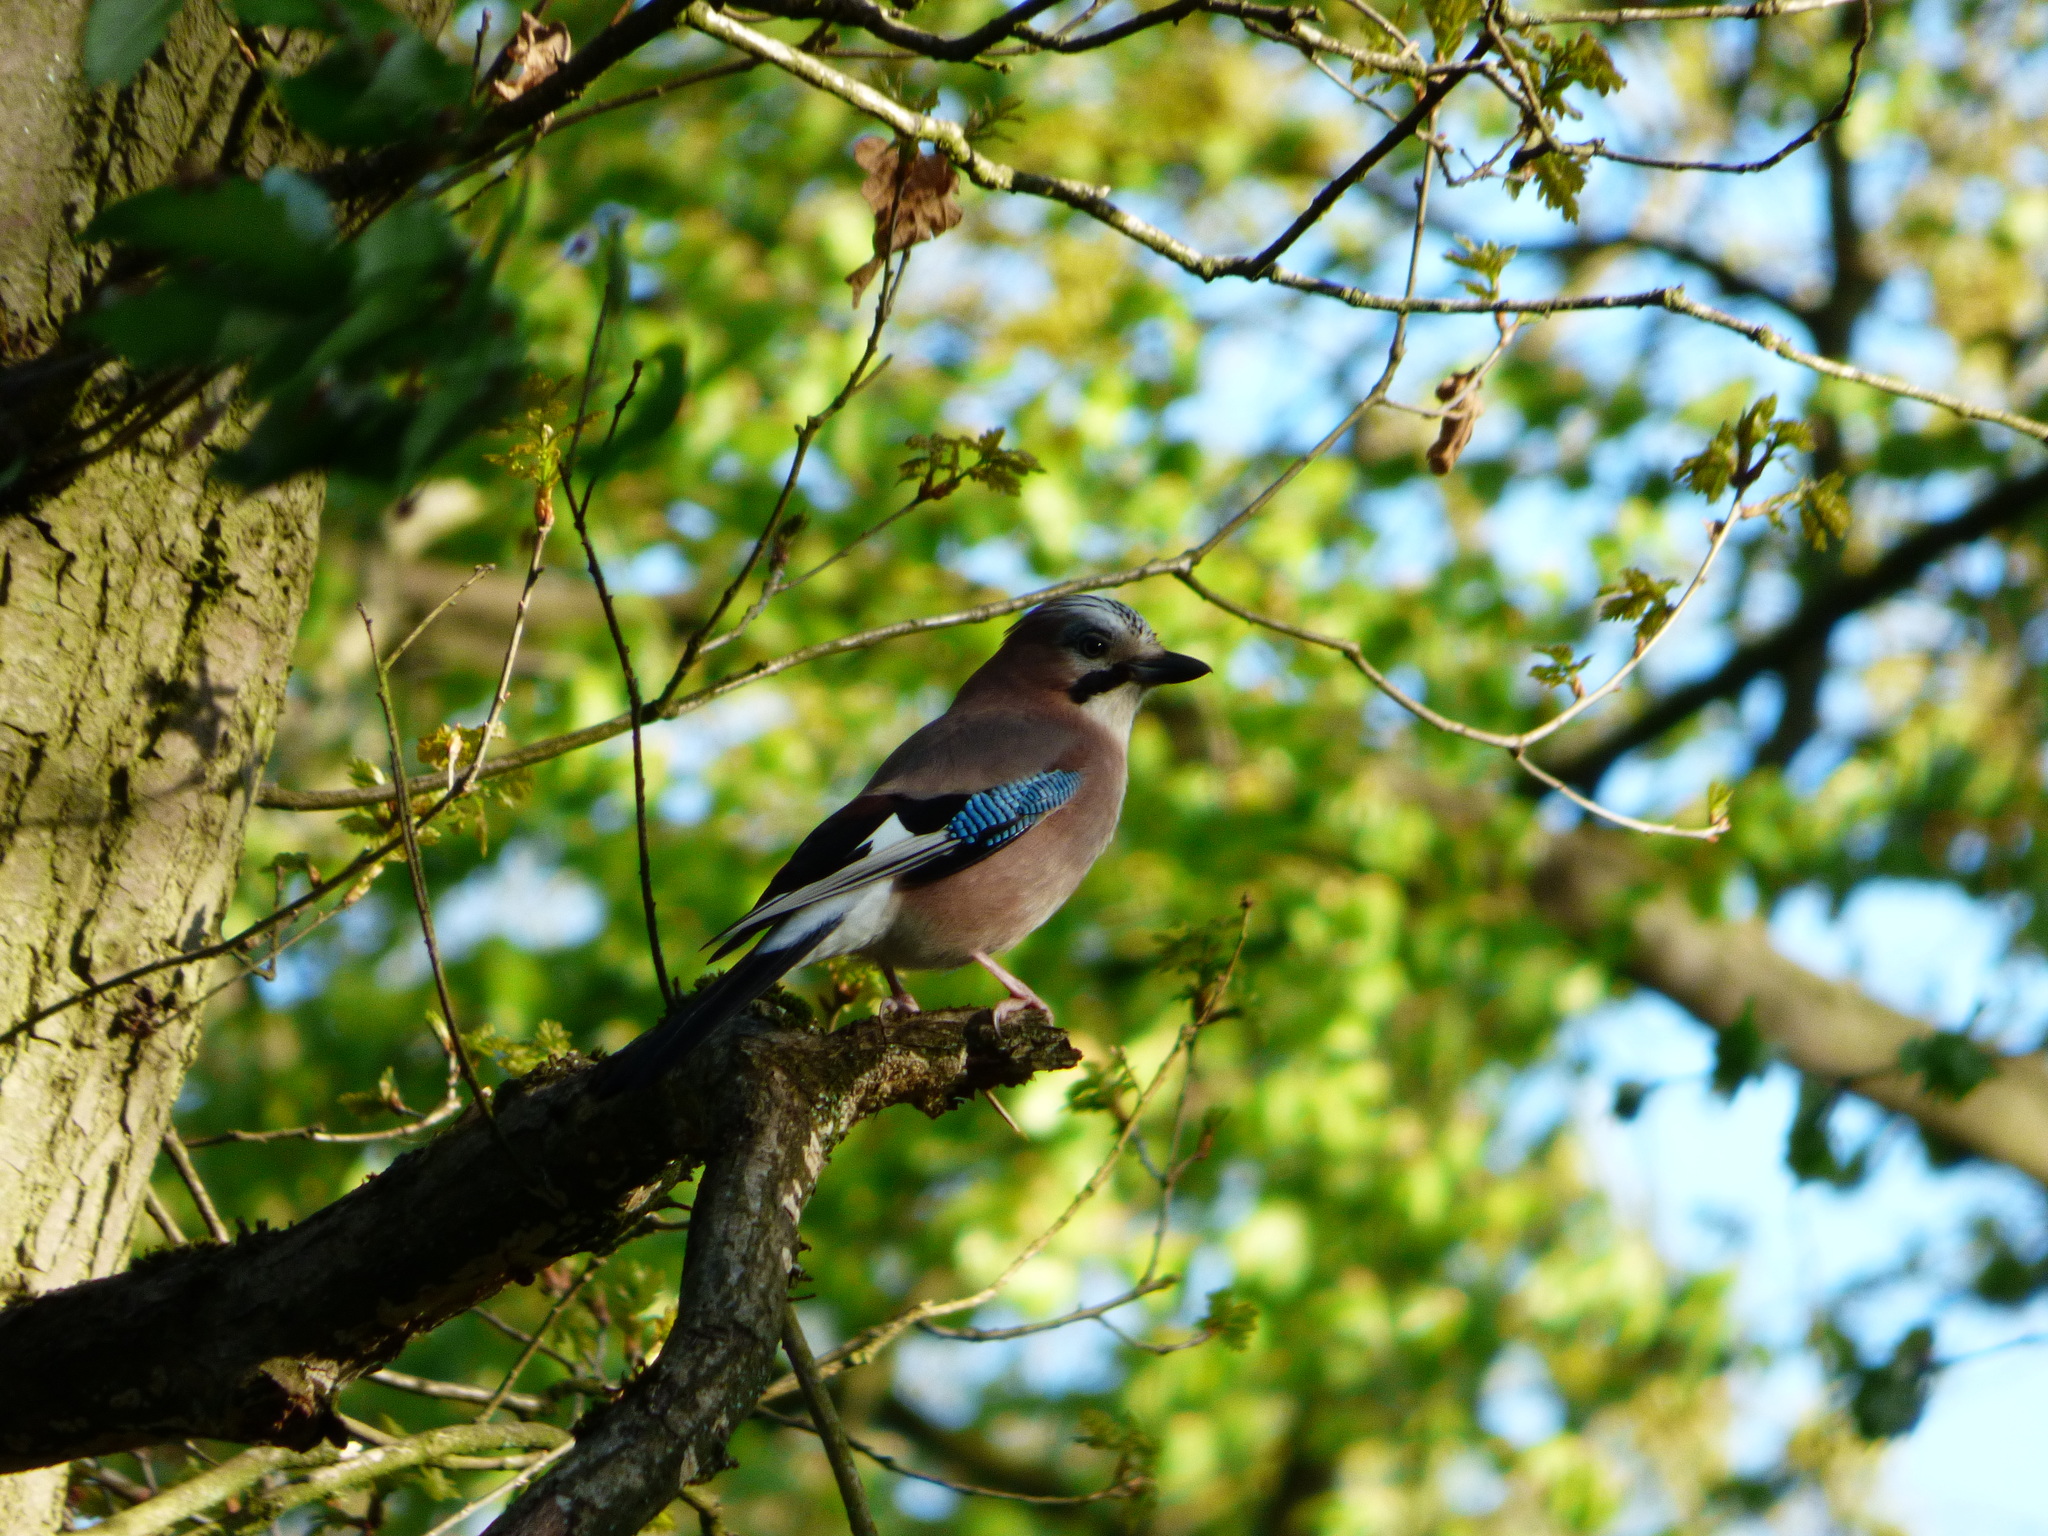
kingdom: Animalia
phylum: Chordata
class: Aves
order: Passeriformes
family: Corvidae
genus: Garrulus
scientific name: Garrulus glandarius
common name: Eurasian jay
